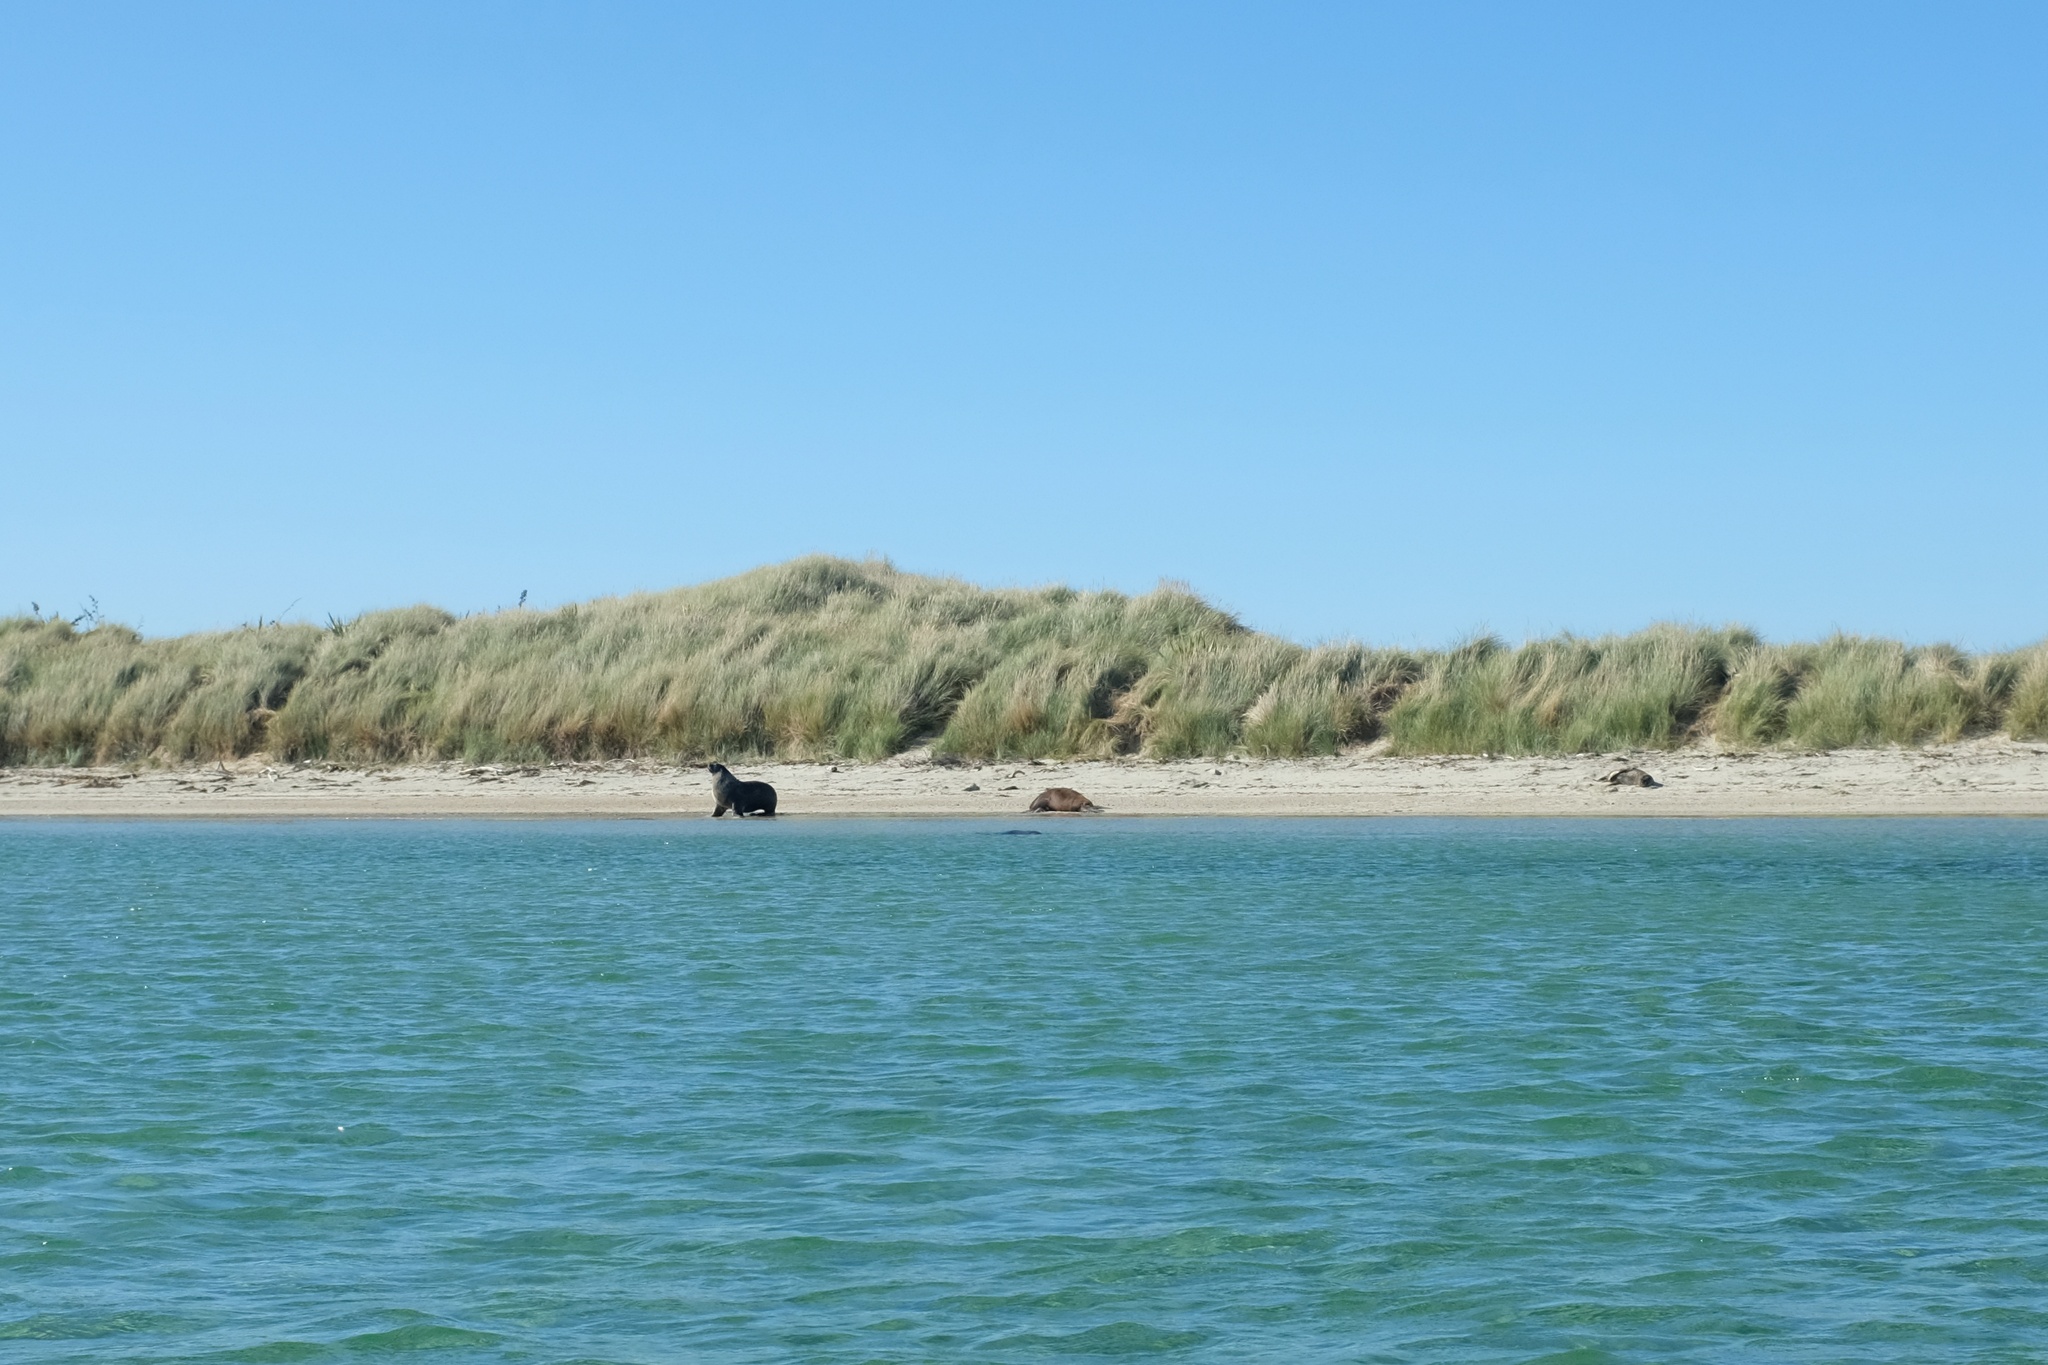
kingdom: Animalia
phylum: Chordata
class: Mammalia
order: Carnivora
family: Otariidae
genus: Phocarctos
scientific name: Phocarctos hookeri
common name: New zealand sea lion
